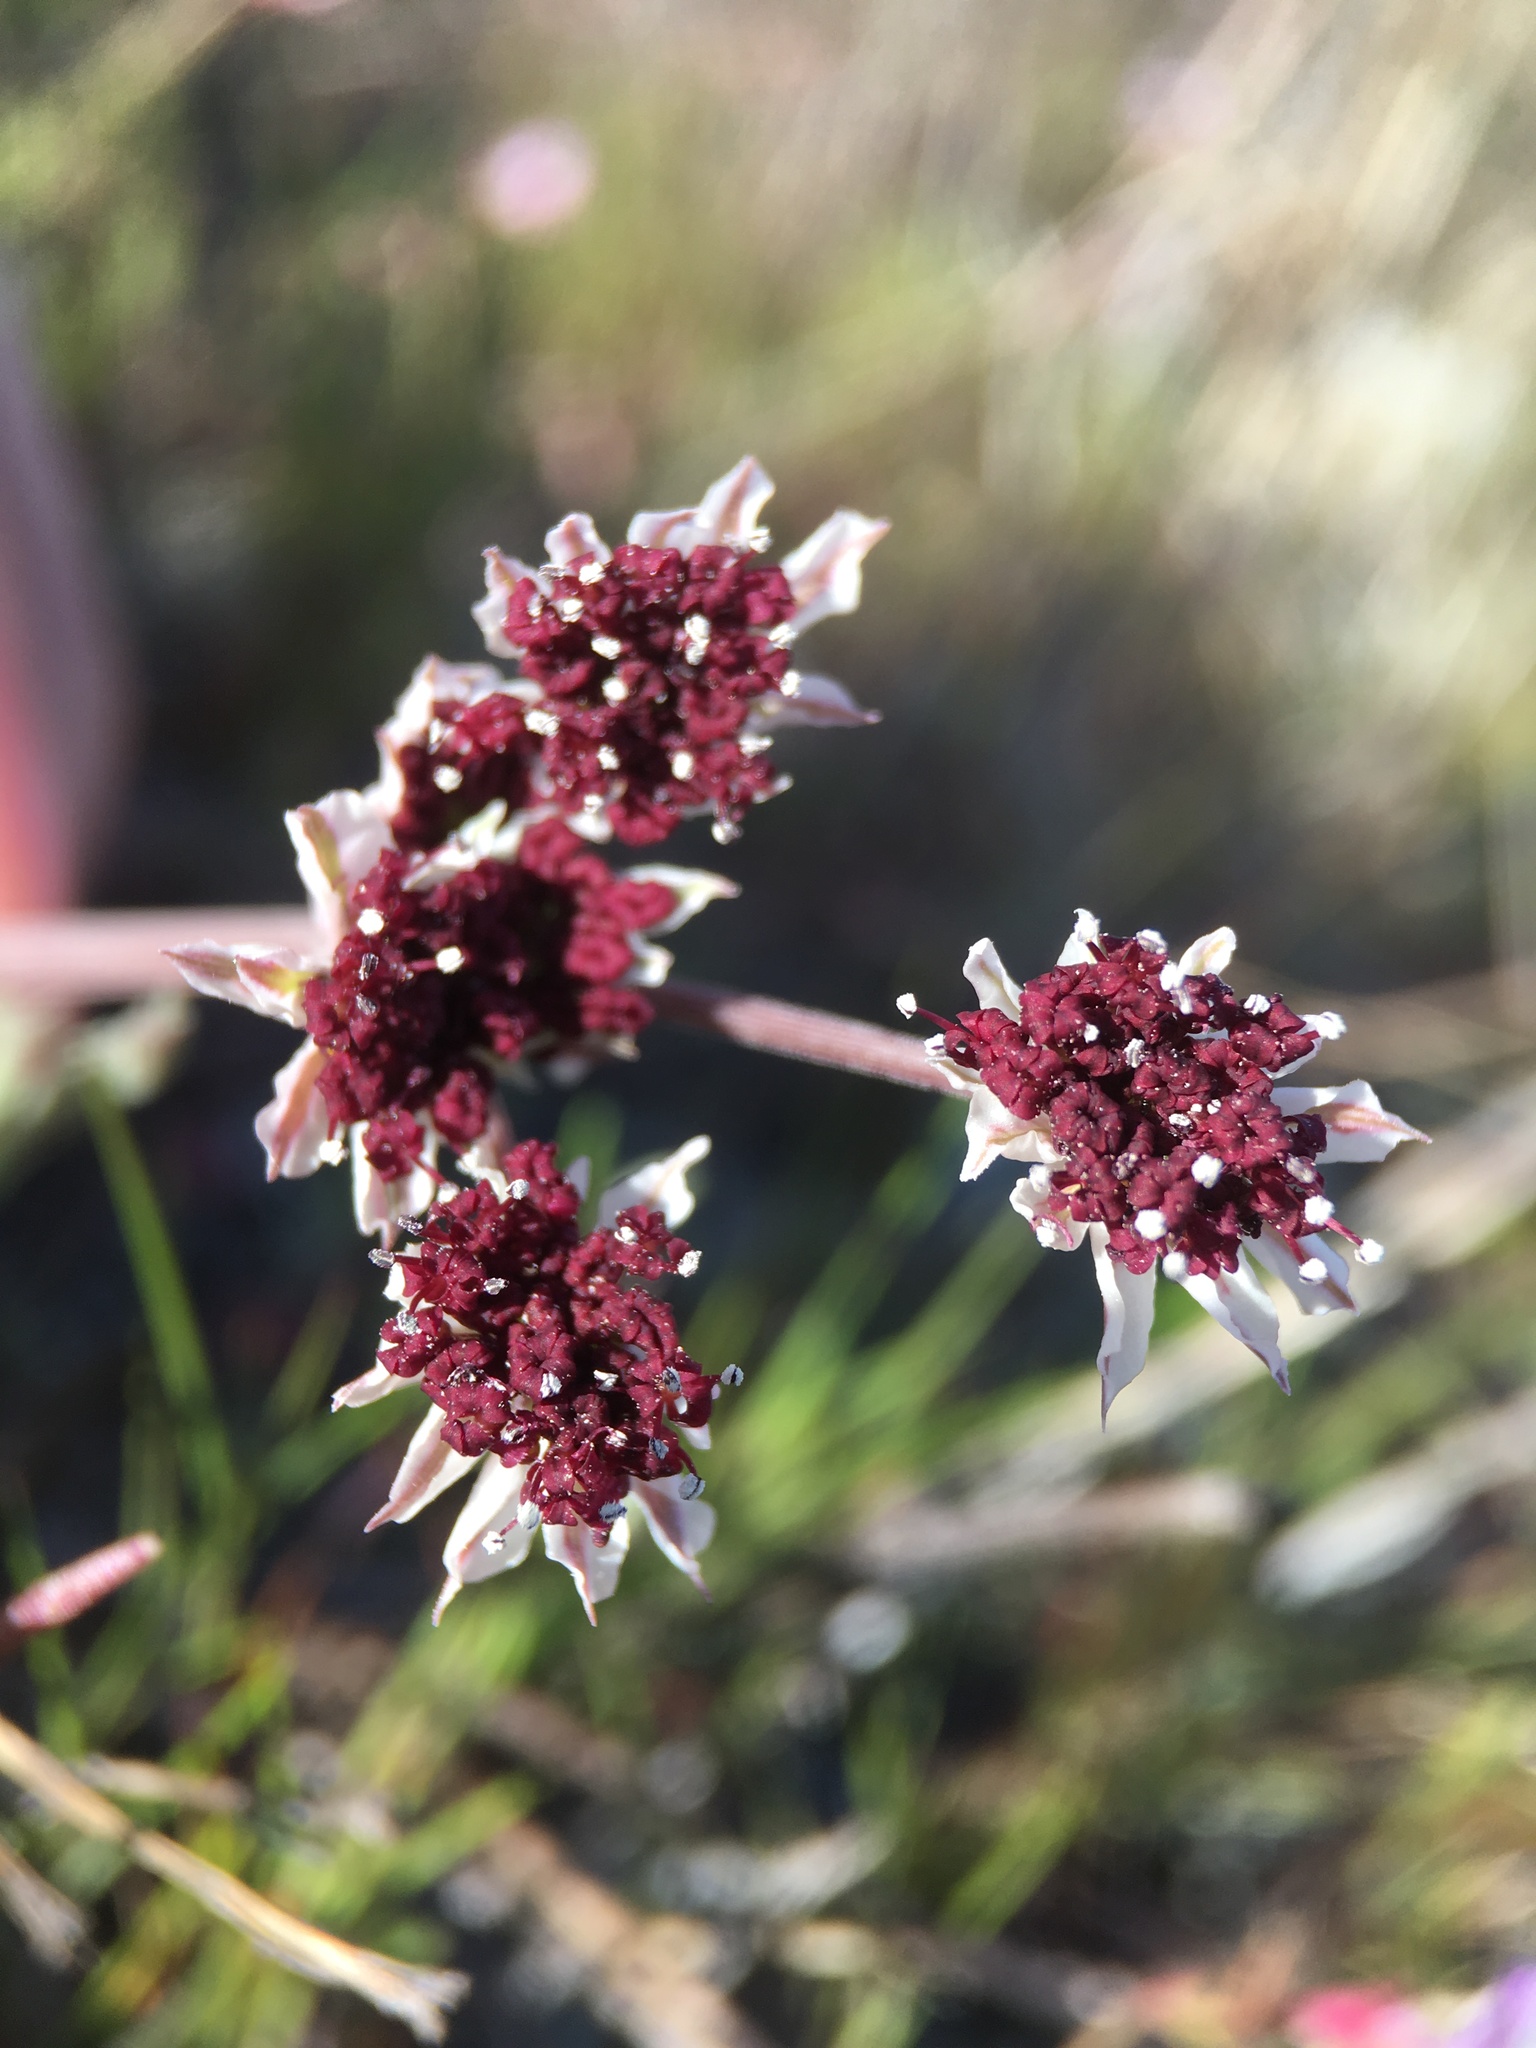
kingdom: Plantae
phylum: Tracheophyta
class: Magnoliopsida
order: Apiales
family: Apiaceae
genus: Lomatium
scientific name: Lomatium hooveri
